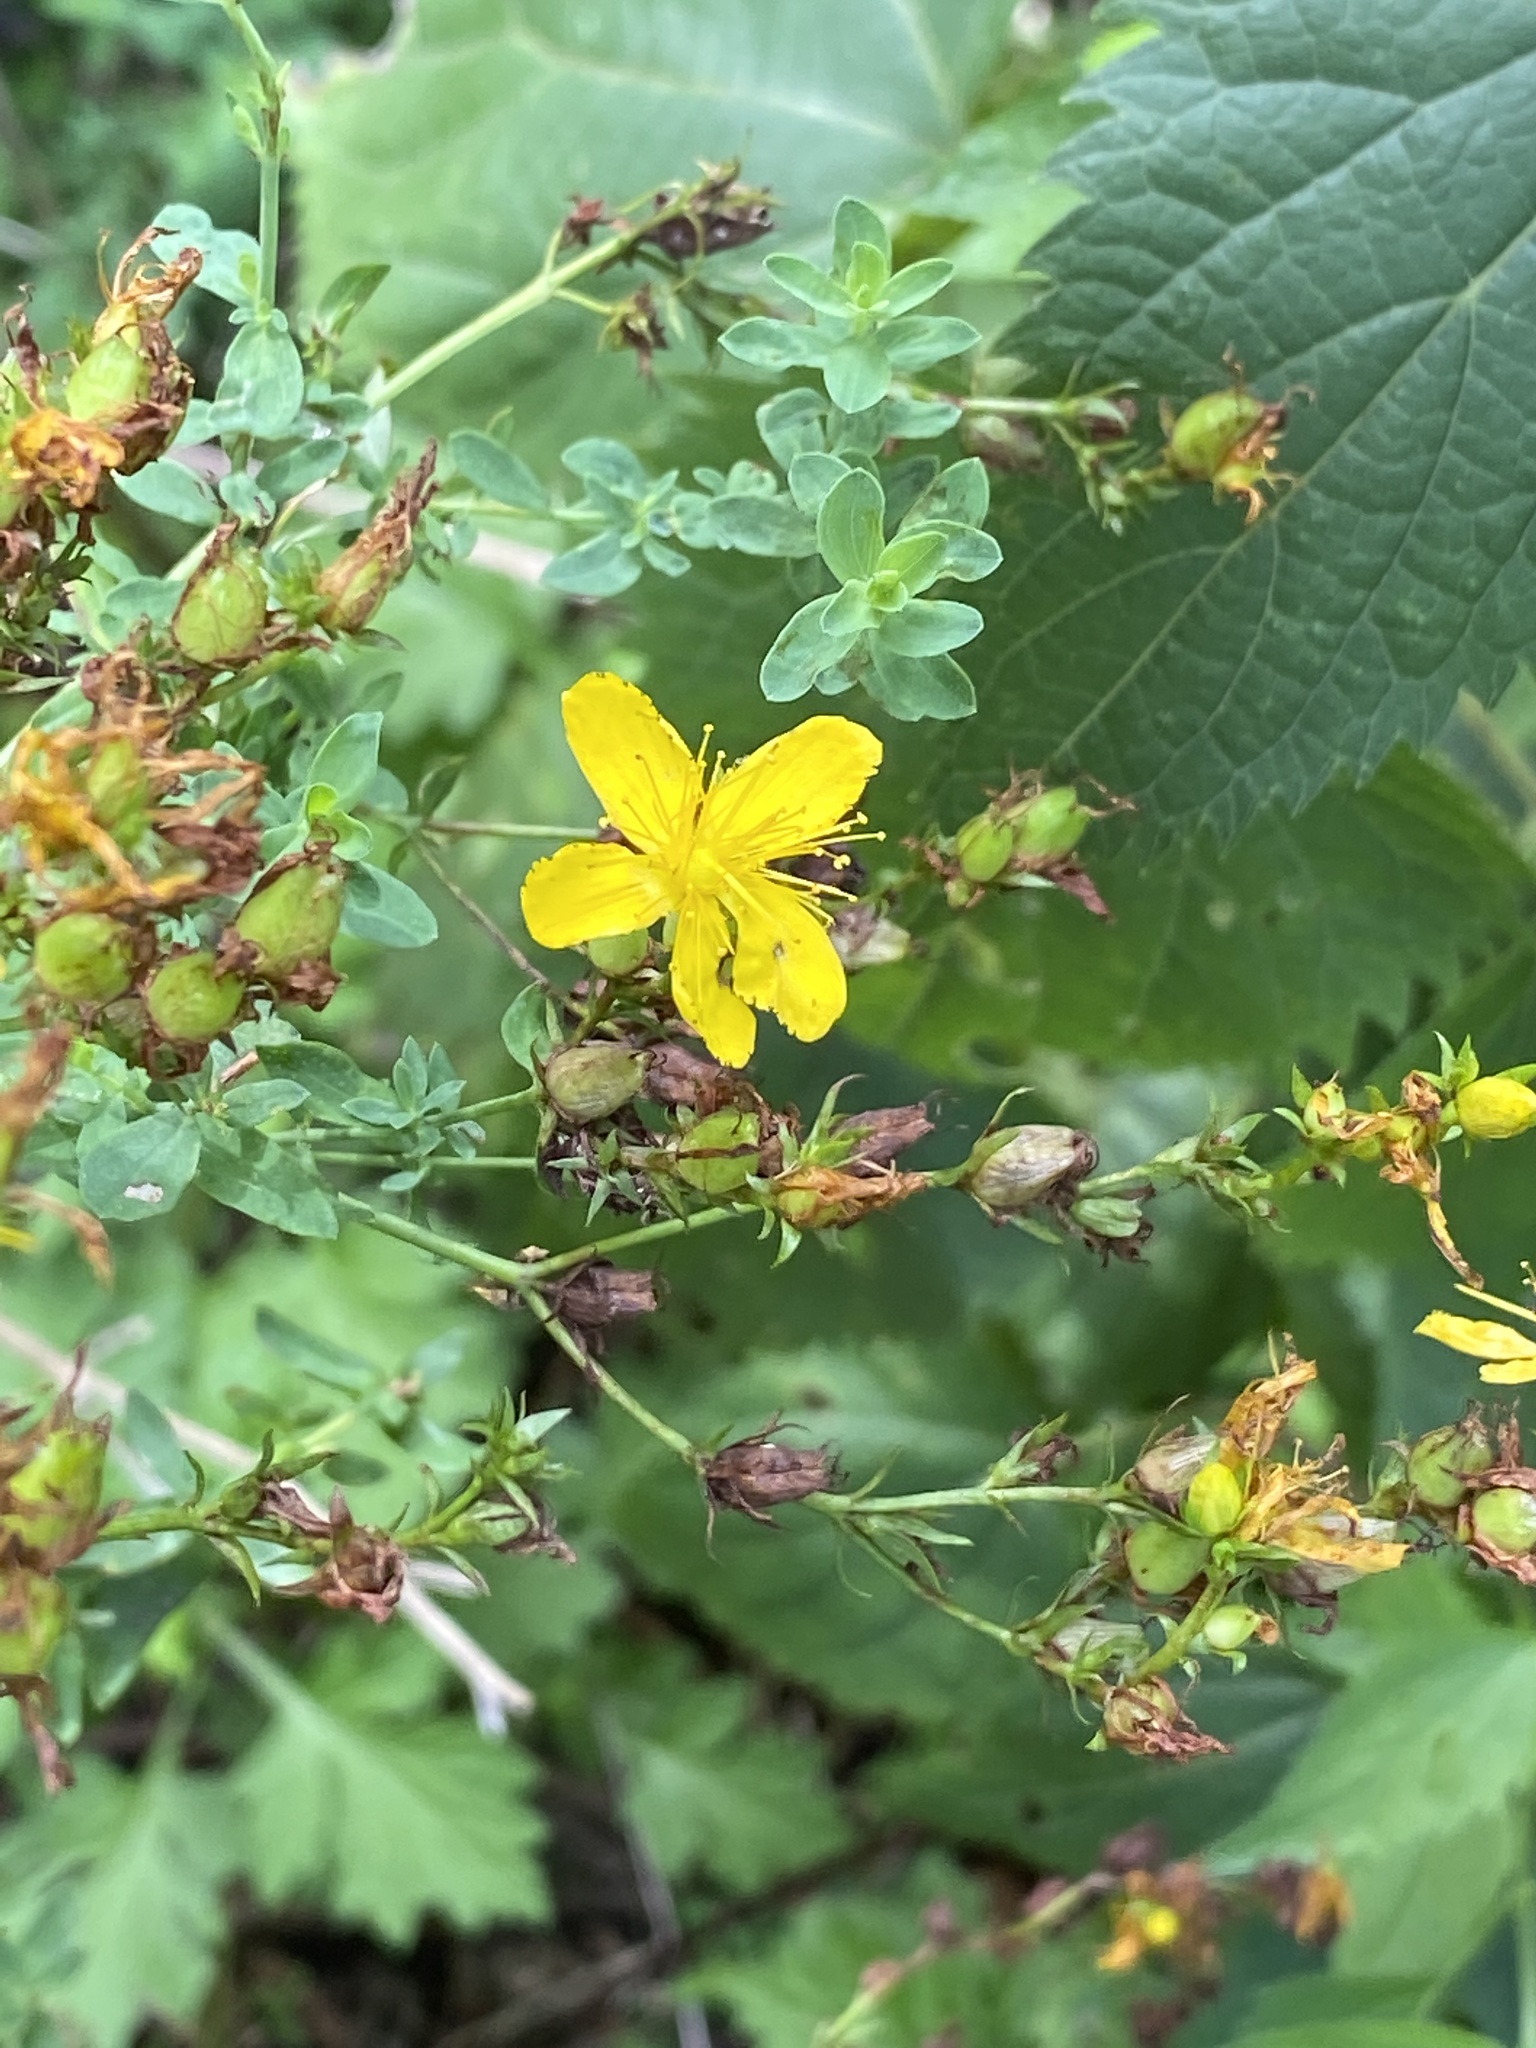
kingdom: Plantae
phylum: Tracheophyta
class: Magnoliopsida
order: Malpighiales
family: Hypericaceae
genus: Hypericum
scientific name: Hypericum perforatum
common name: Common st. johnswort
